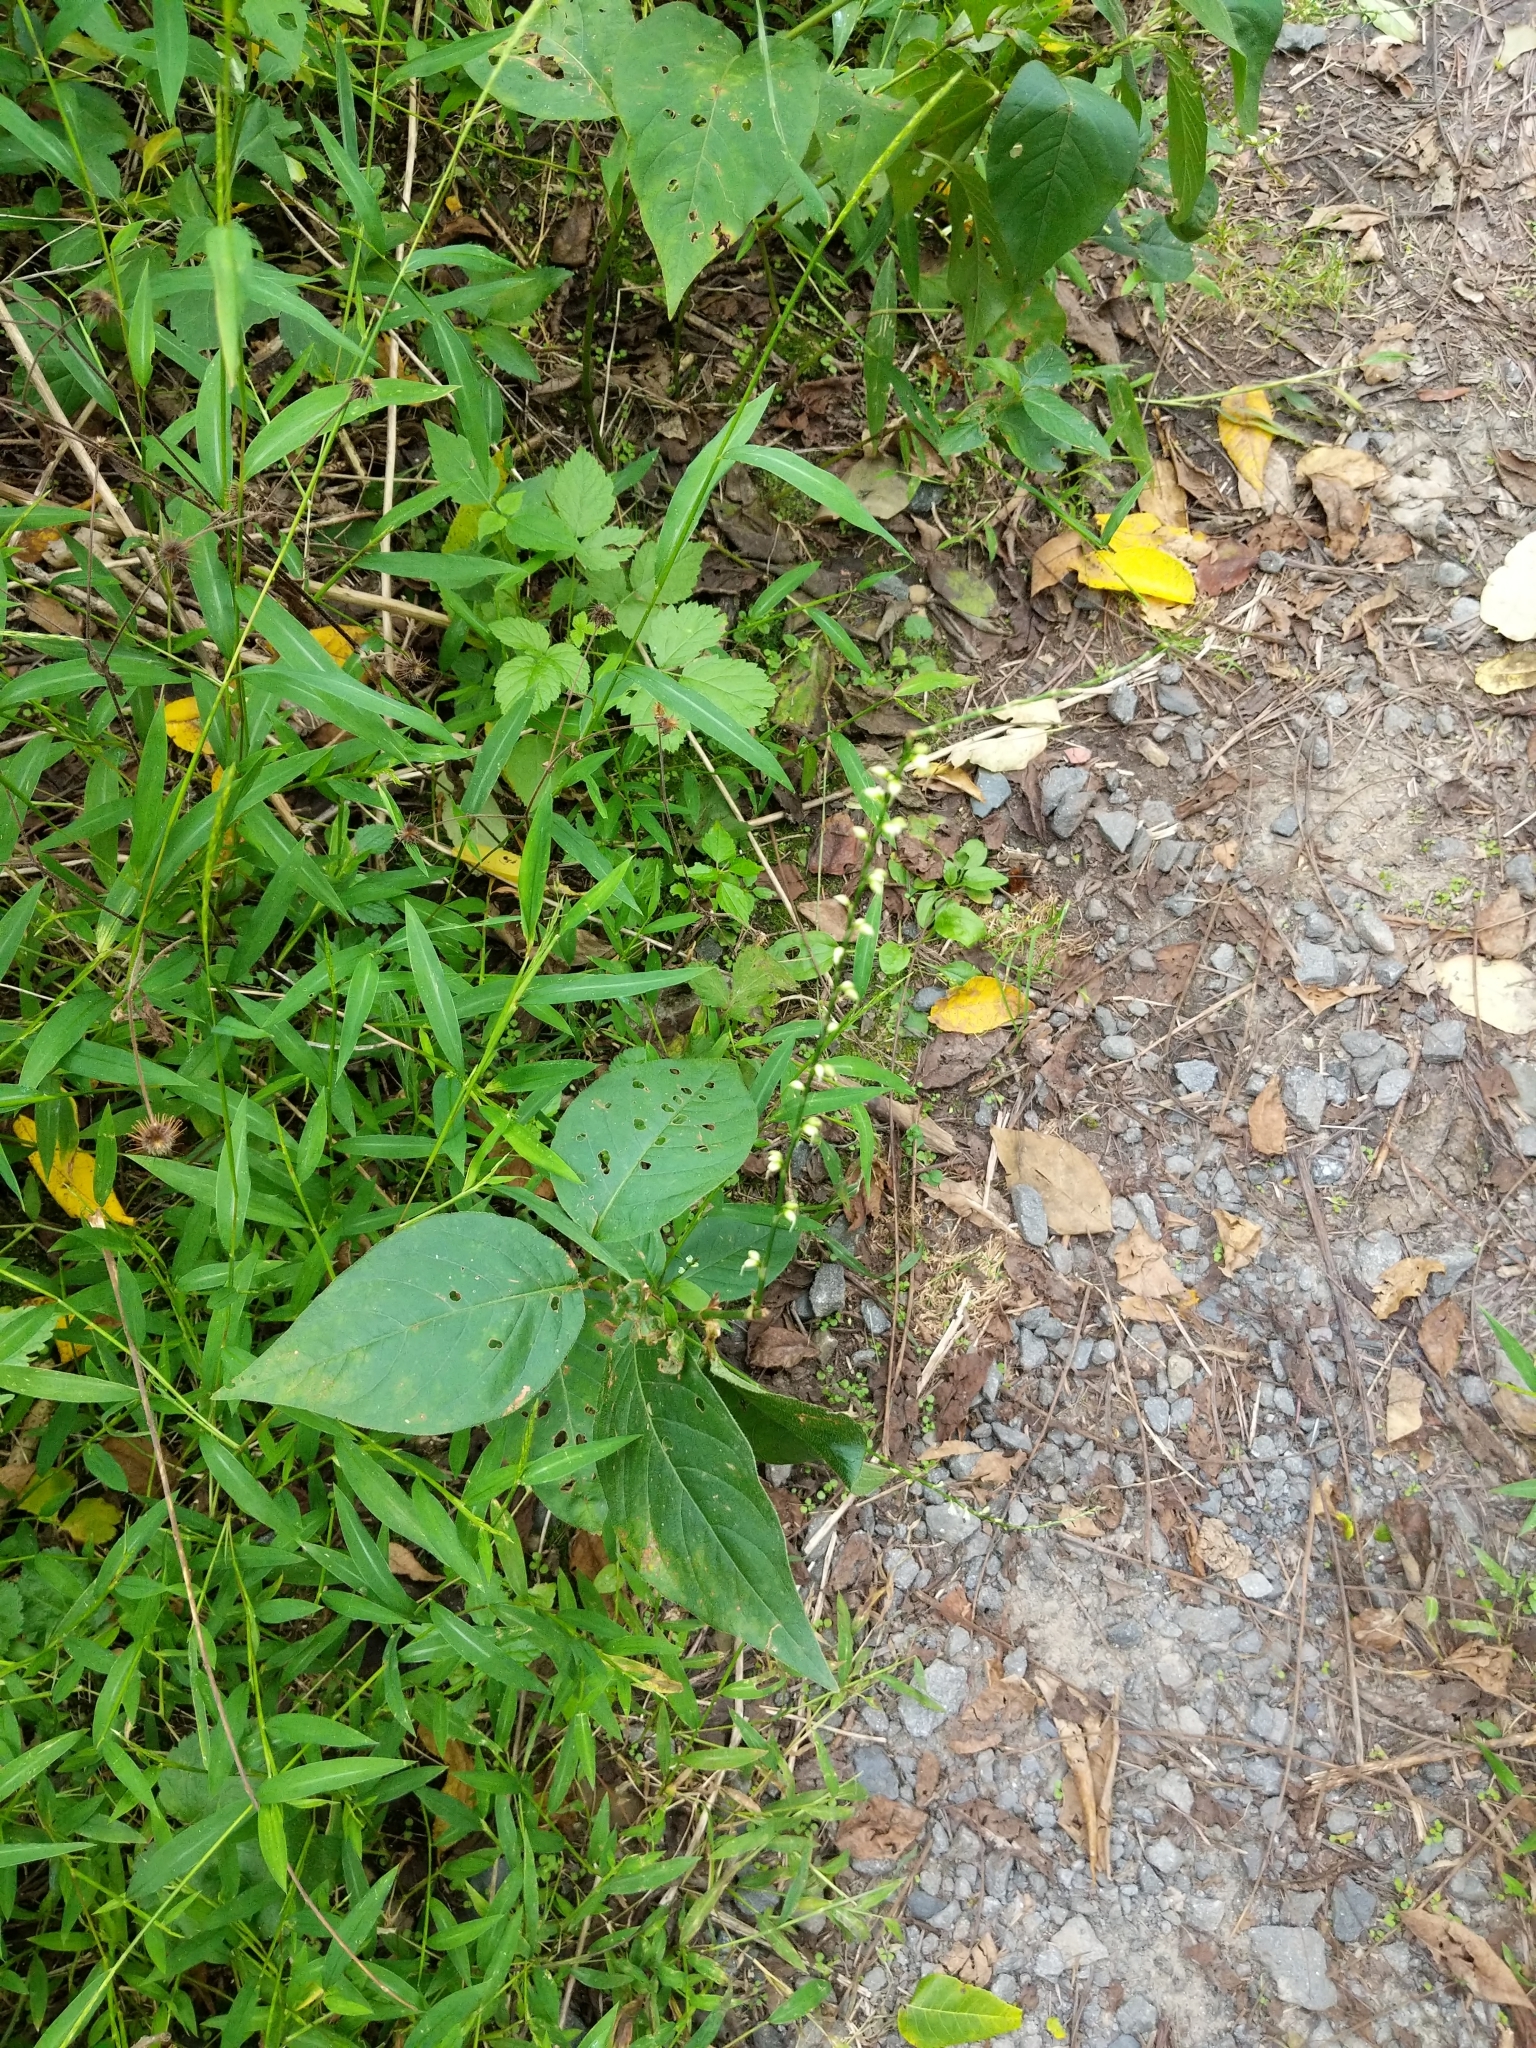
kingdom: Plantae
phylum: Tracheophyta
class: Magnoliopsida
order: Caryophyllales
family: Polygonaceae
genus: Persicaria
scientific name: Persicaria virginiana
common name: Jumpseed
